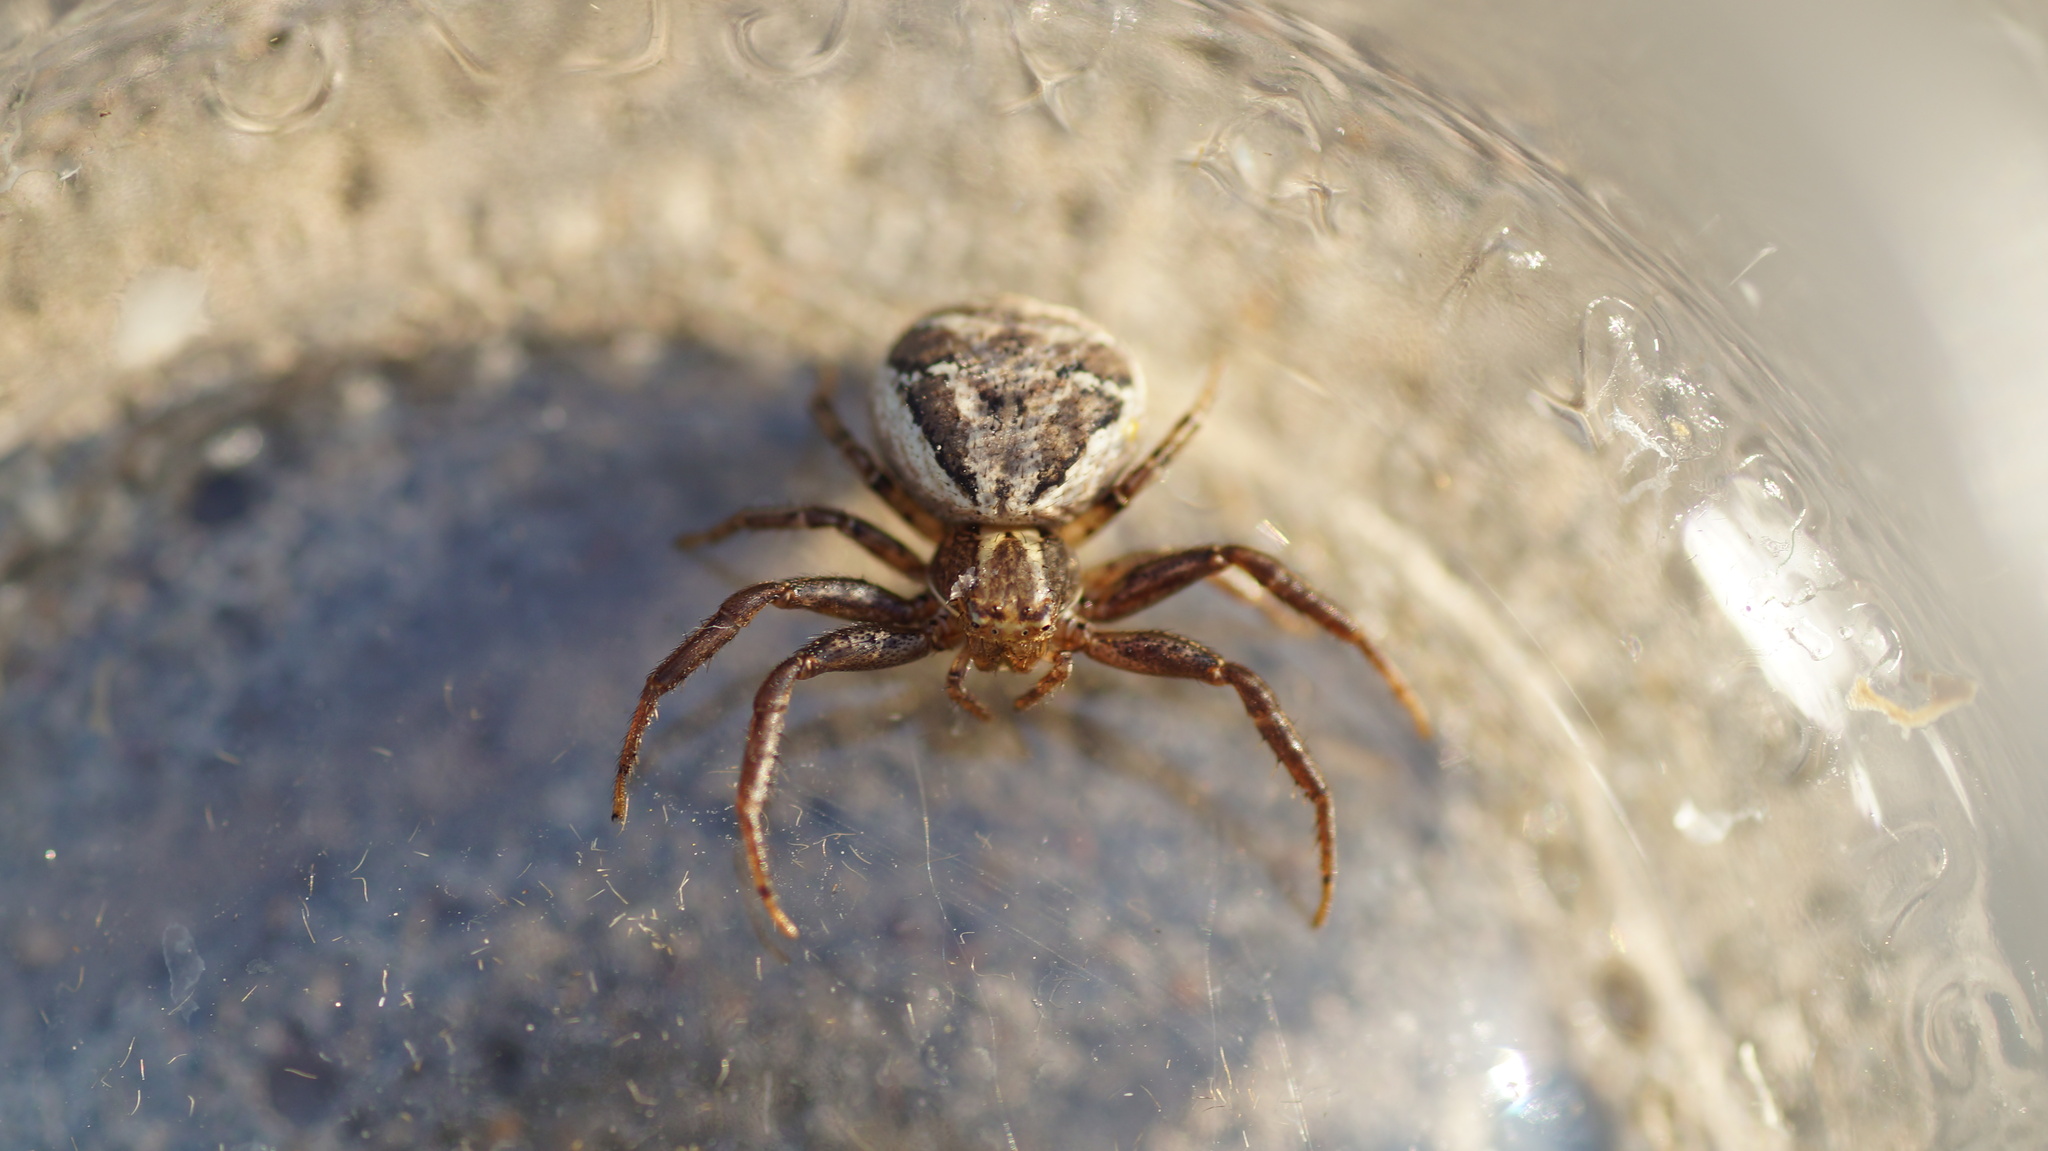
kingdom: Animalia
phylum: Arthropoda
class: Arachnida
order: Araneae
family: Thomisidae
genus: Xysticus
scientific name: Xysticus cristatus
